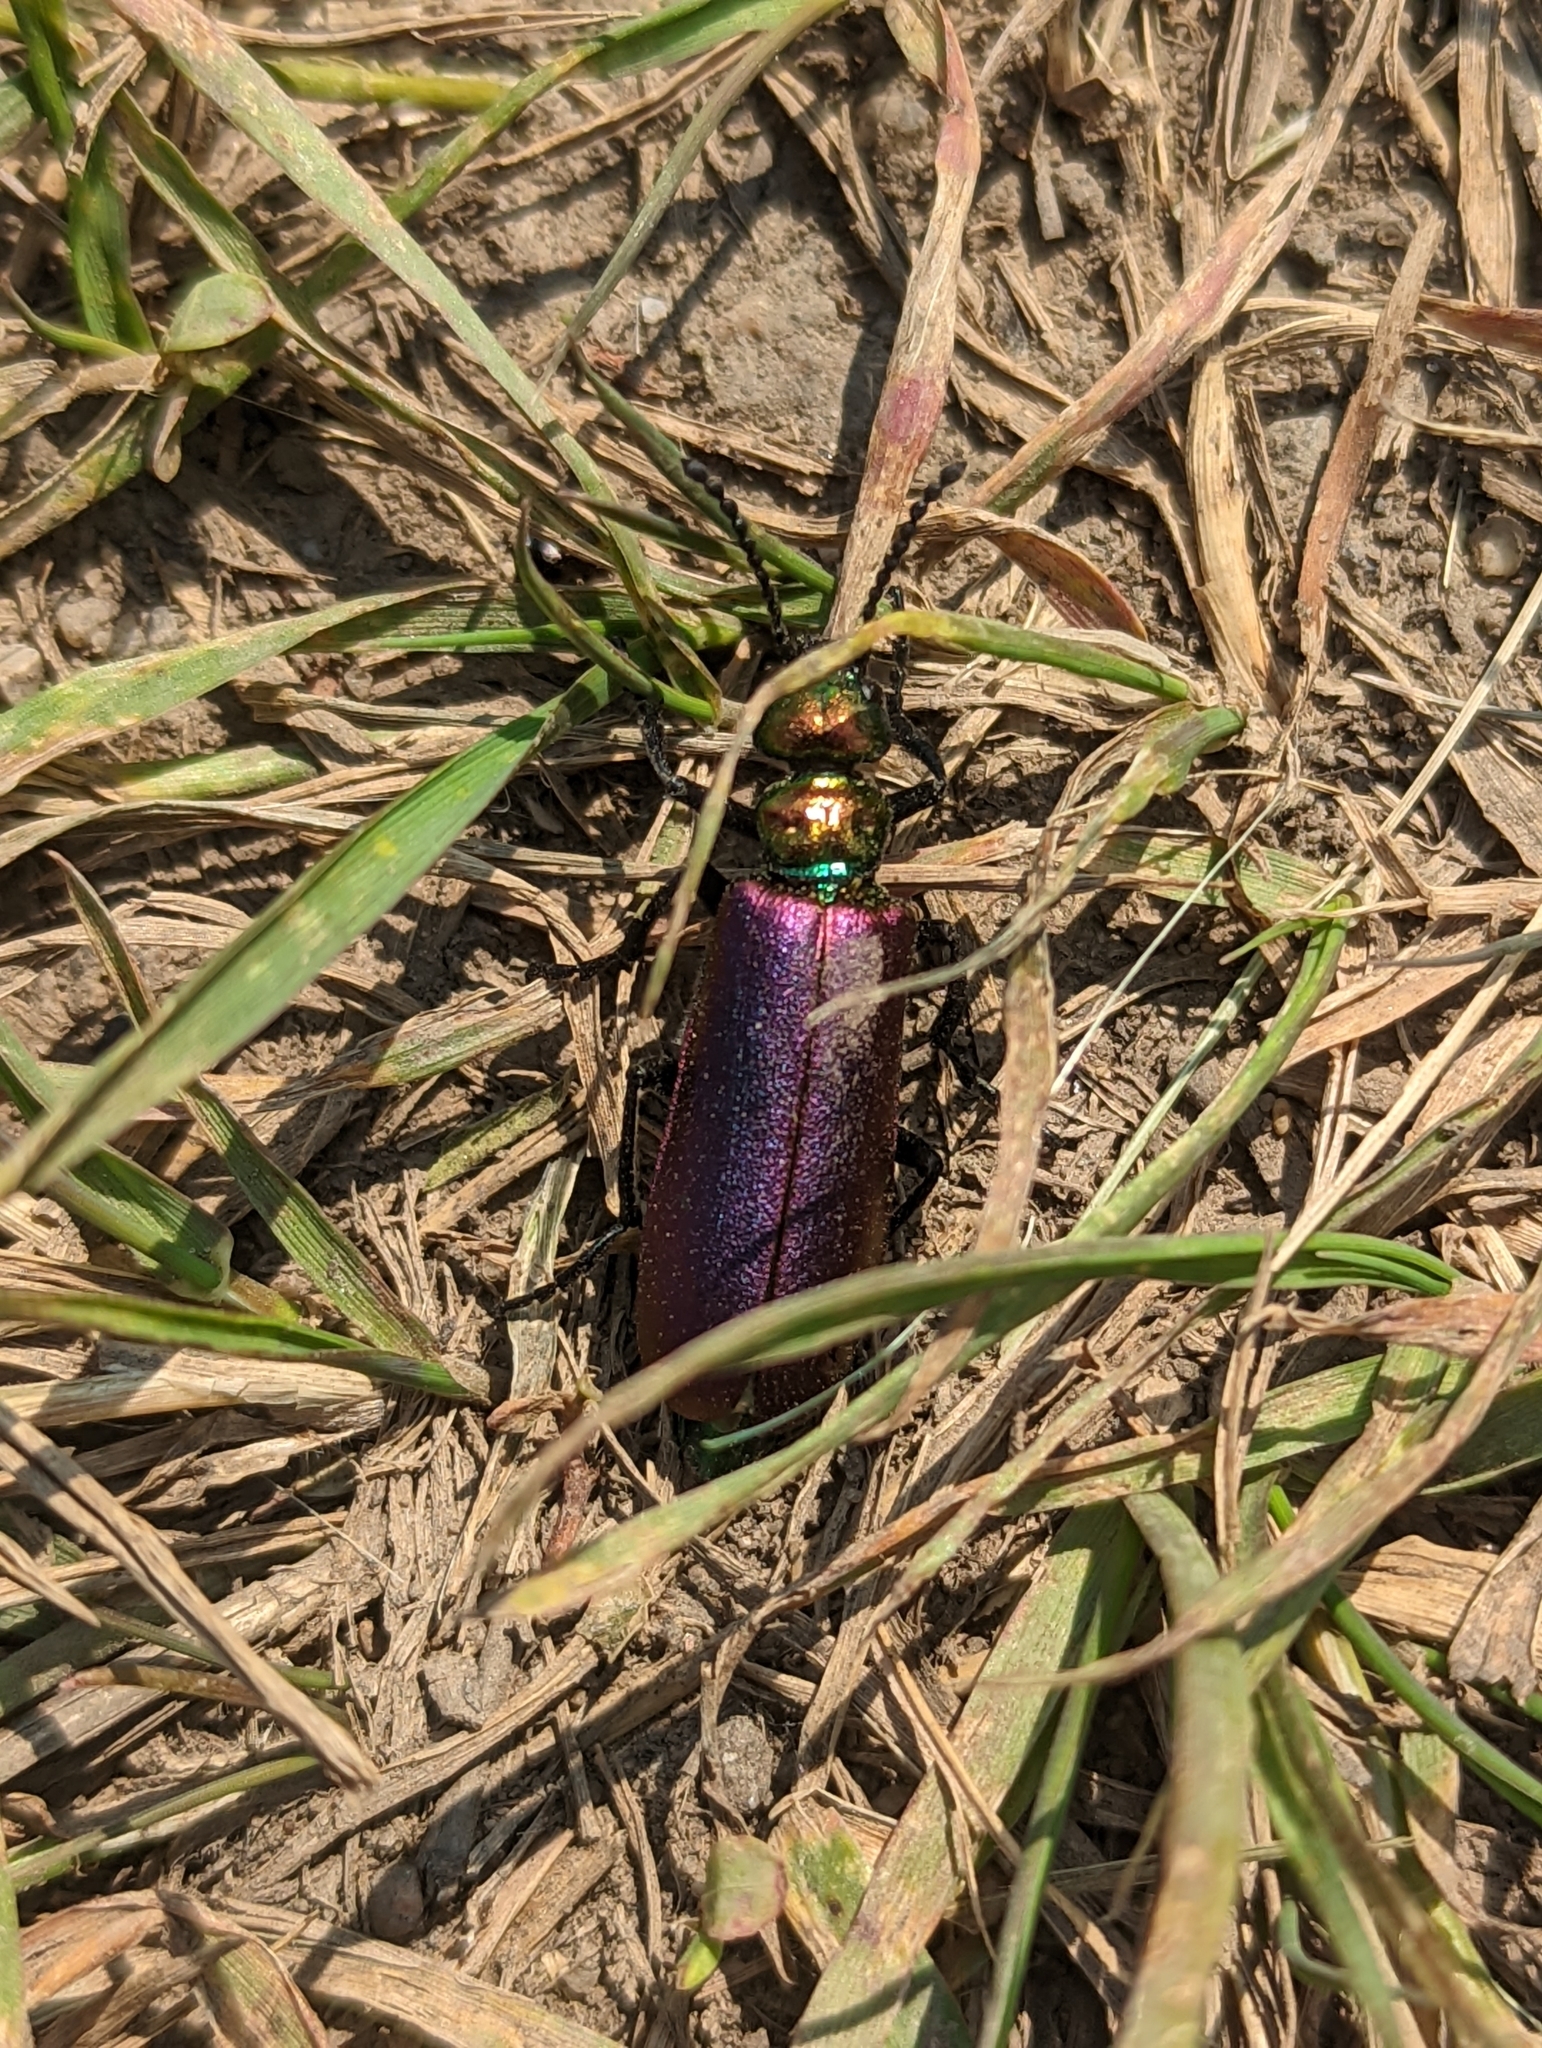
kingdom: Animalia
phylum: Arthropoda
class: Insecta
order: Coleoptera
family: Meloidae
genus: Lytta
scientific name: Lytta nuttallii
